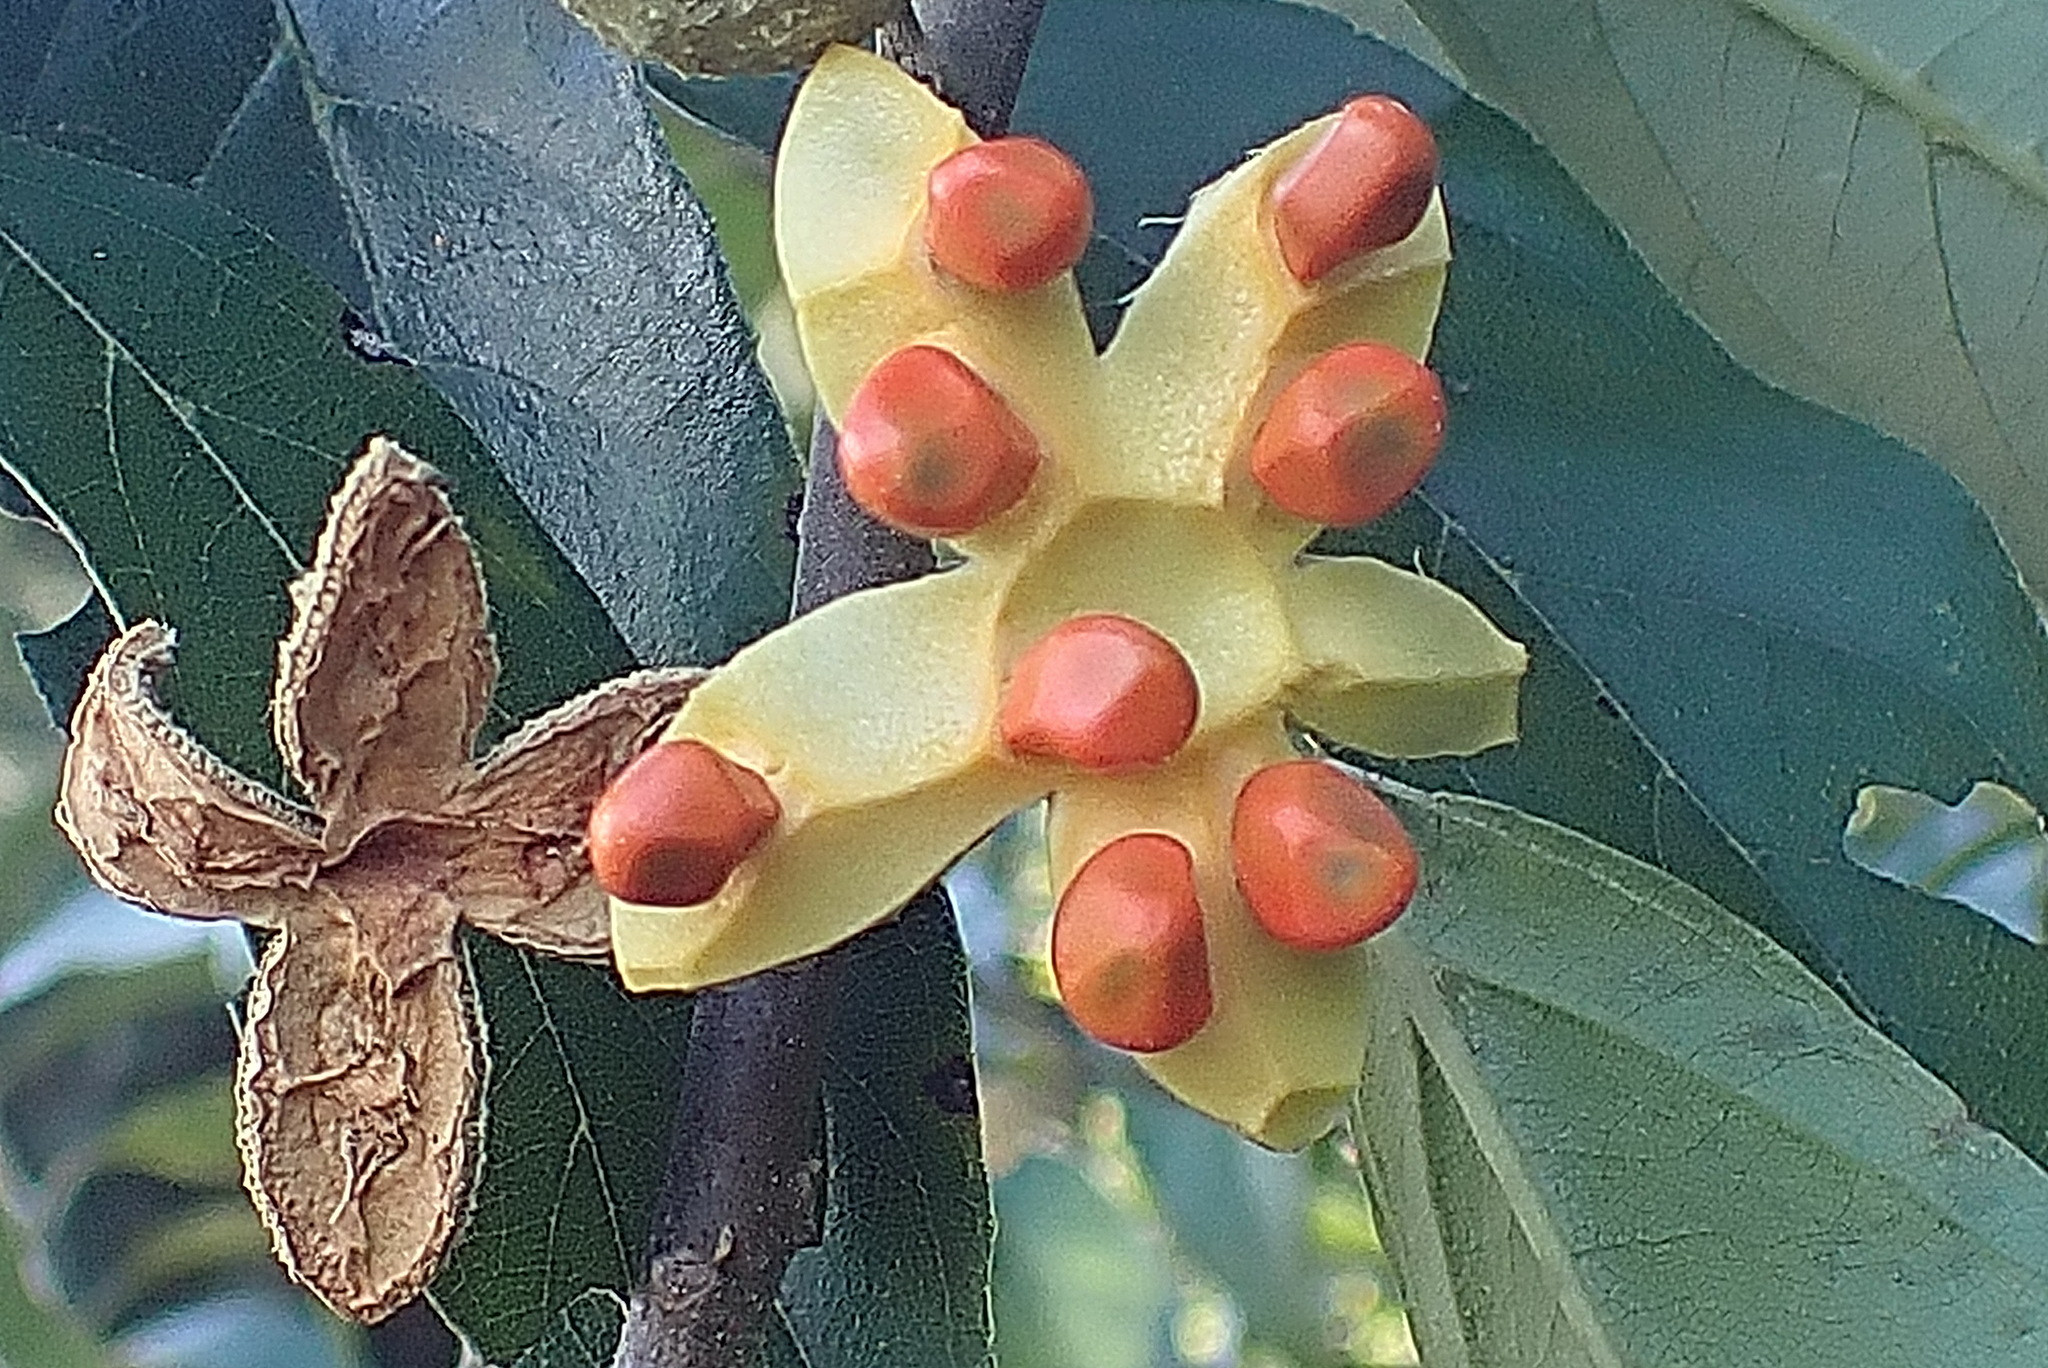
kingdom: Plantae
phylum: Tracheophyta
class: Magnoliopsida
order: Malpighiales
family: Achariaceae
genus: Kiggelaria
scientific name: Kiggelaria africana
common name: Wild peach
